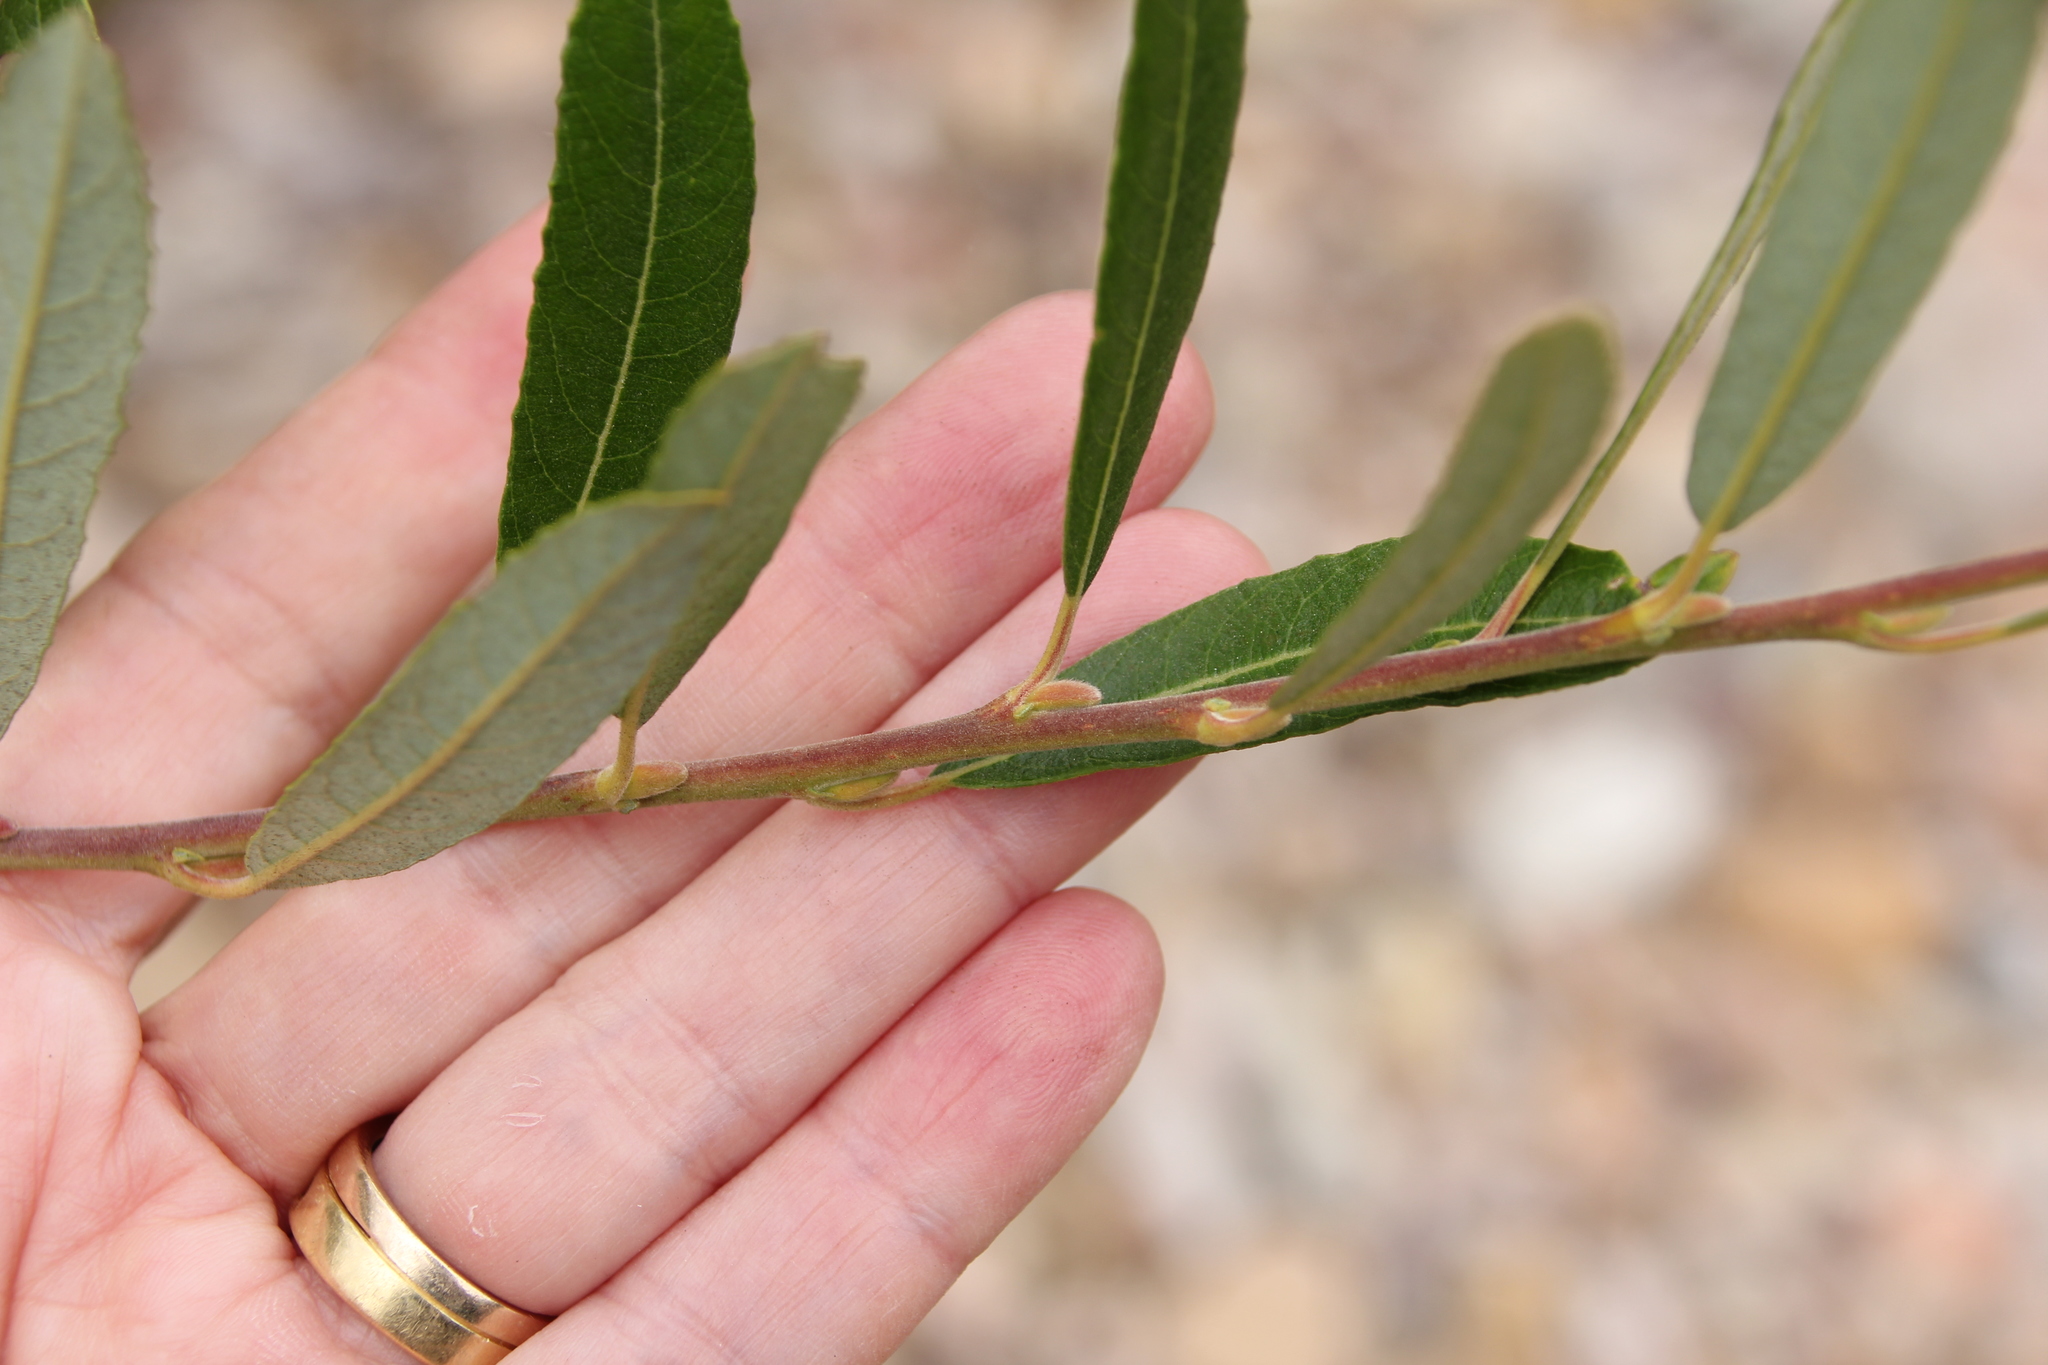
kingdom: Plantae
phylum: Tracheophyta
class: Magnoliopsida
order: Malpighiales
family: Salicaceae
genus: Salix
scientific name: Salix lasiolepis
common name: Arroyo willow
